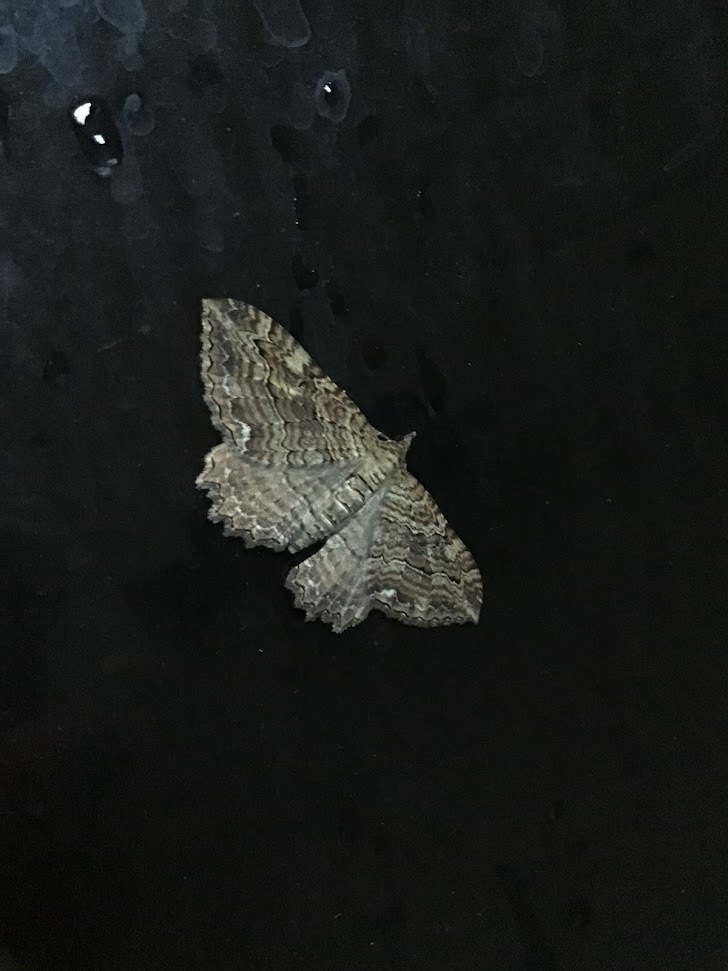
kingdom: Animalia
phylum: Arthropoda
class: Insecta
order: Lepidoptera
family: Geometridae
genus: Rheumaptera
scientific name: Rheumaptera
